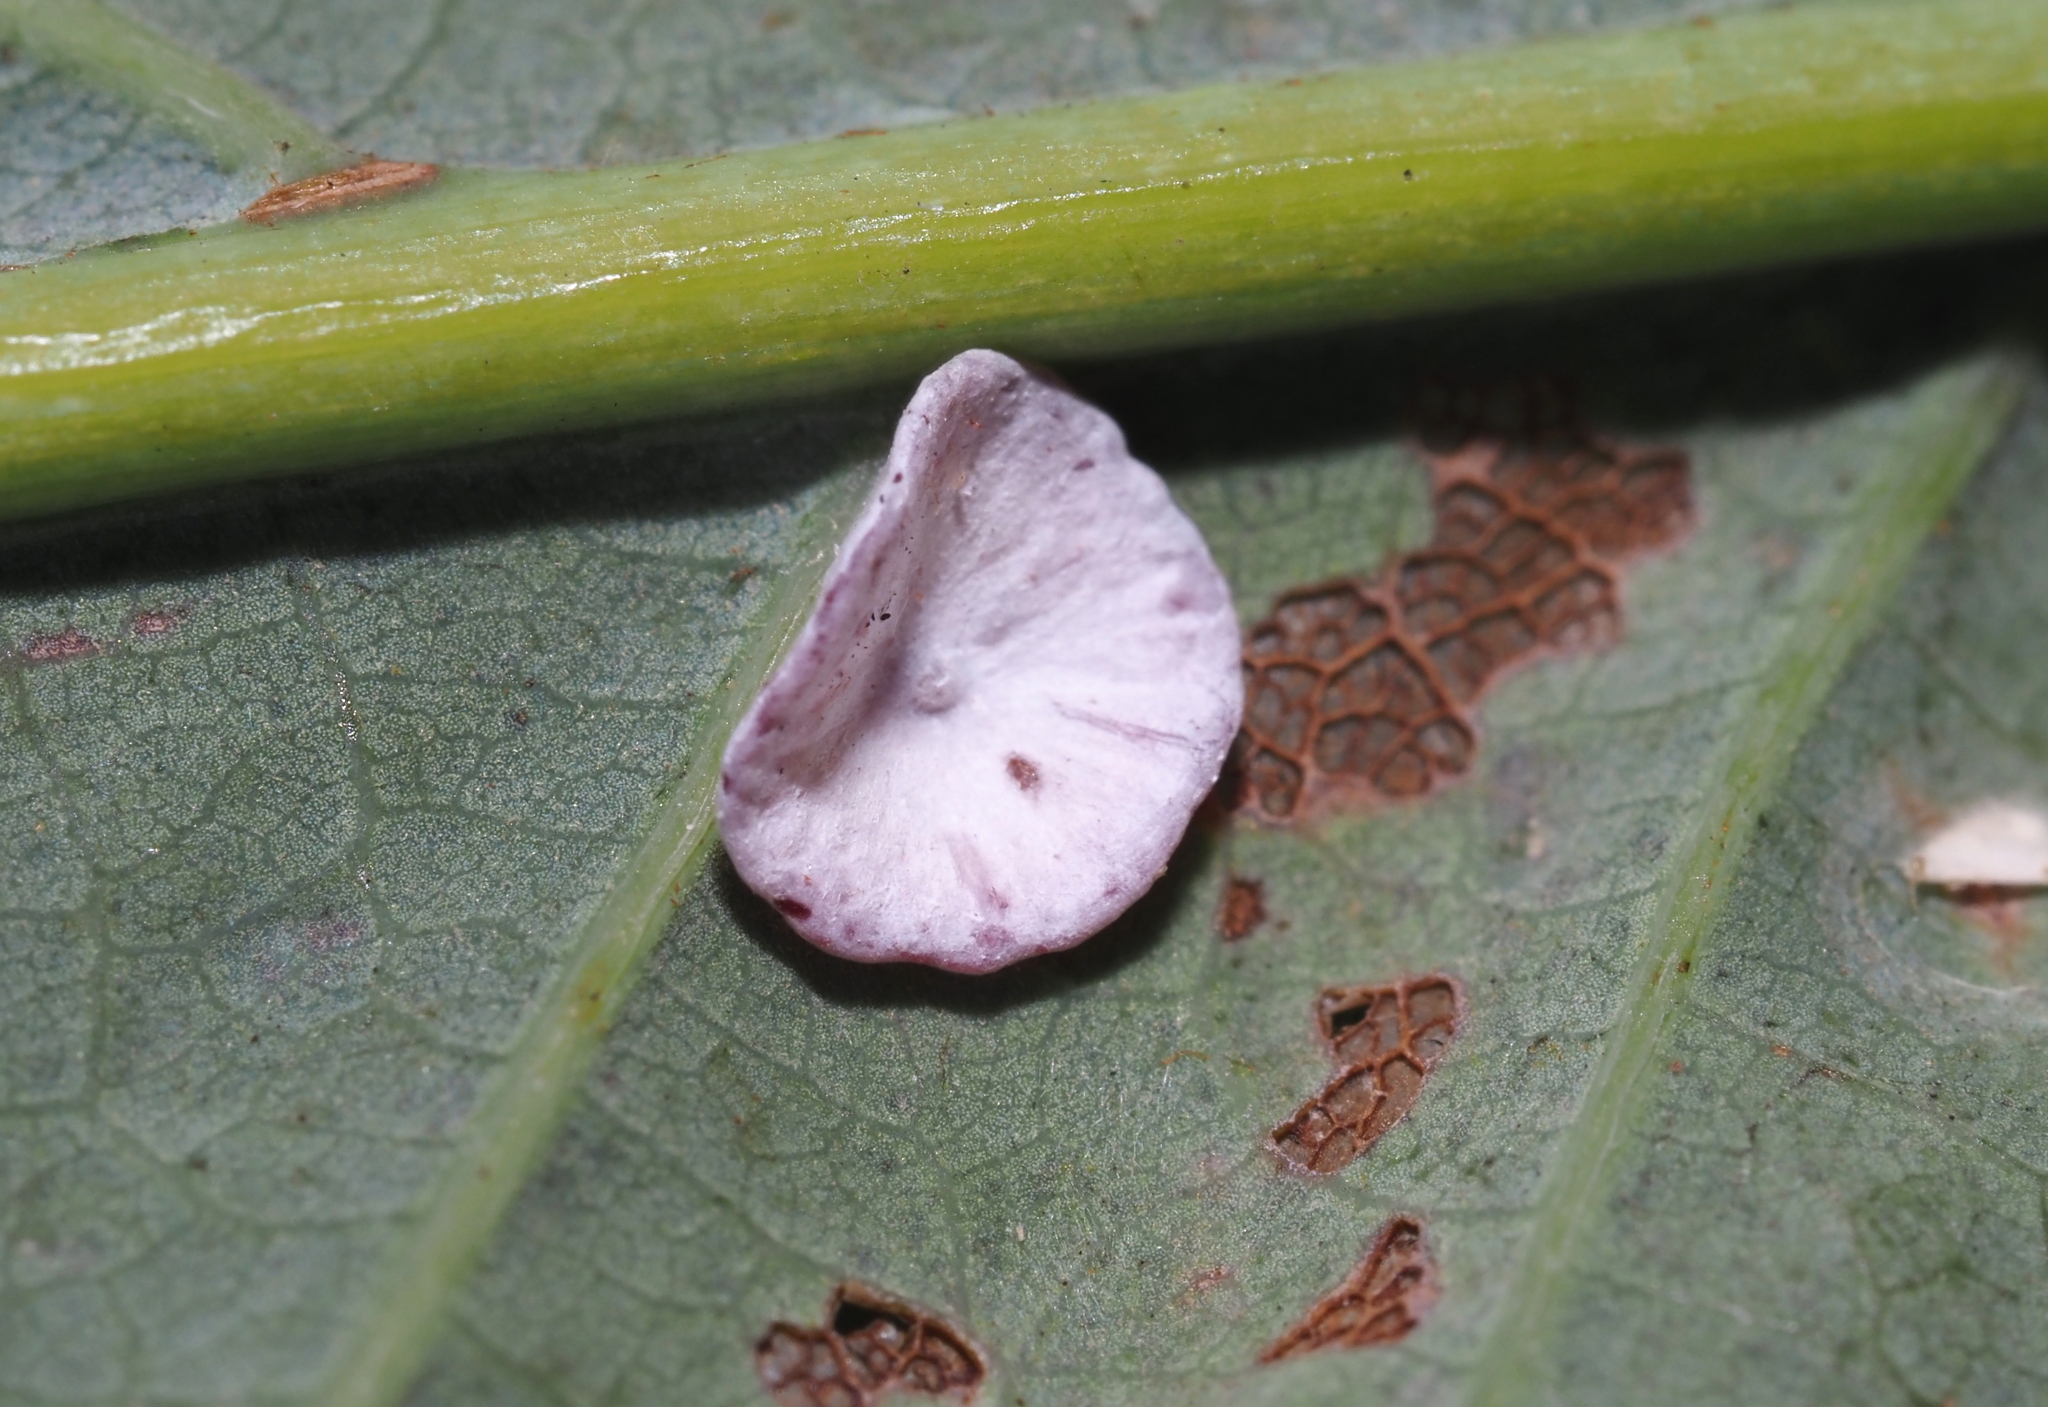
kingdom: Animalia
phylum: Arthropoda
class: Insecta
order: Hymenoptera
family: Cynipidae
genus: Phylloteras
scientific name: Phylloteras poculum
